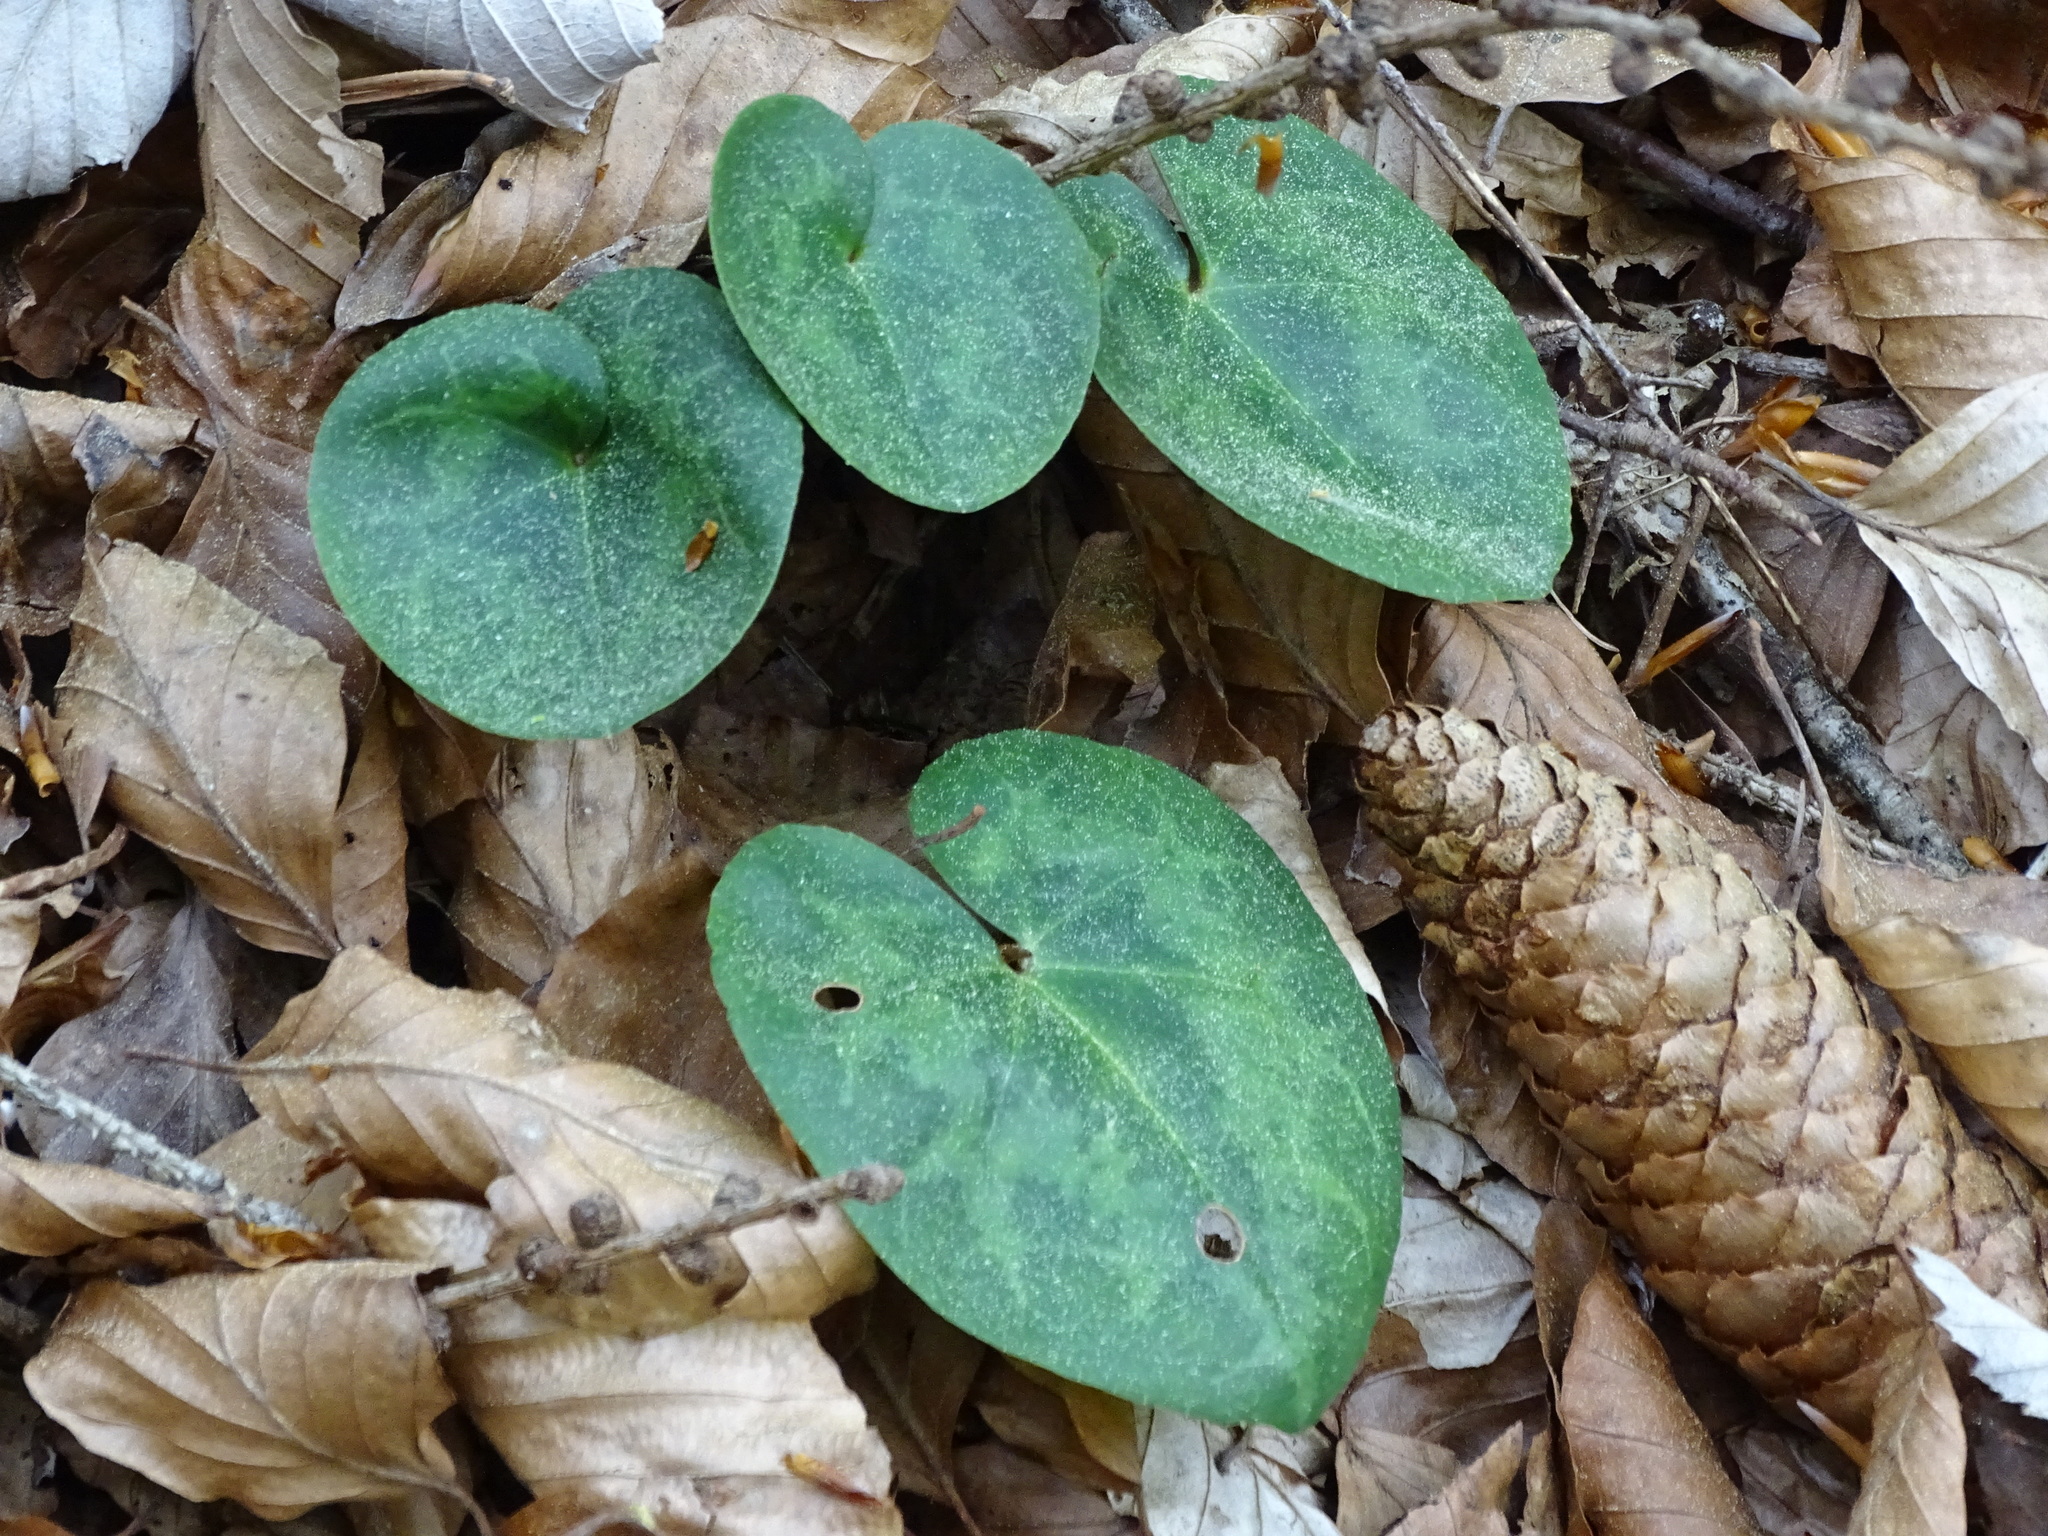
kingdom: Plantae
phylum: Tracheophyta
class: Magnoliopsida
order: Ericales
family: Primulaceae
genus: Cyclamen
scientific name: Cyclamen purpurascens
